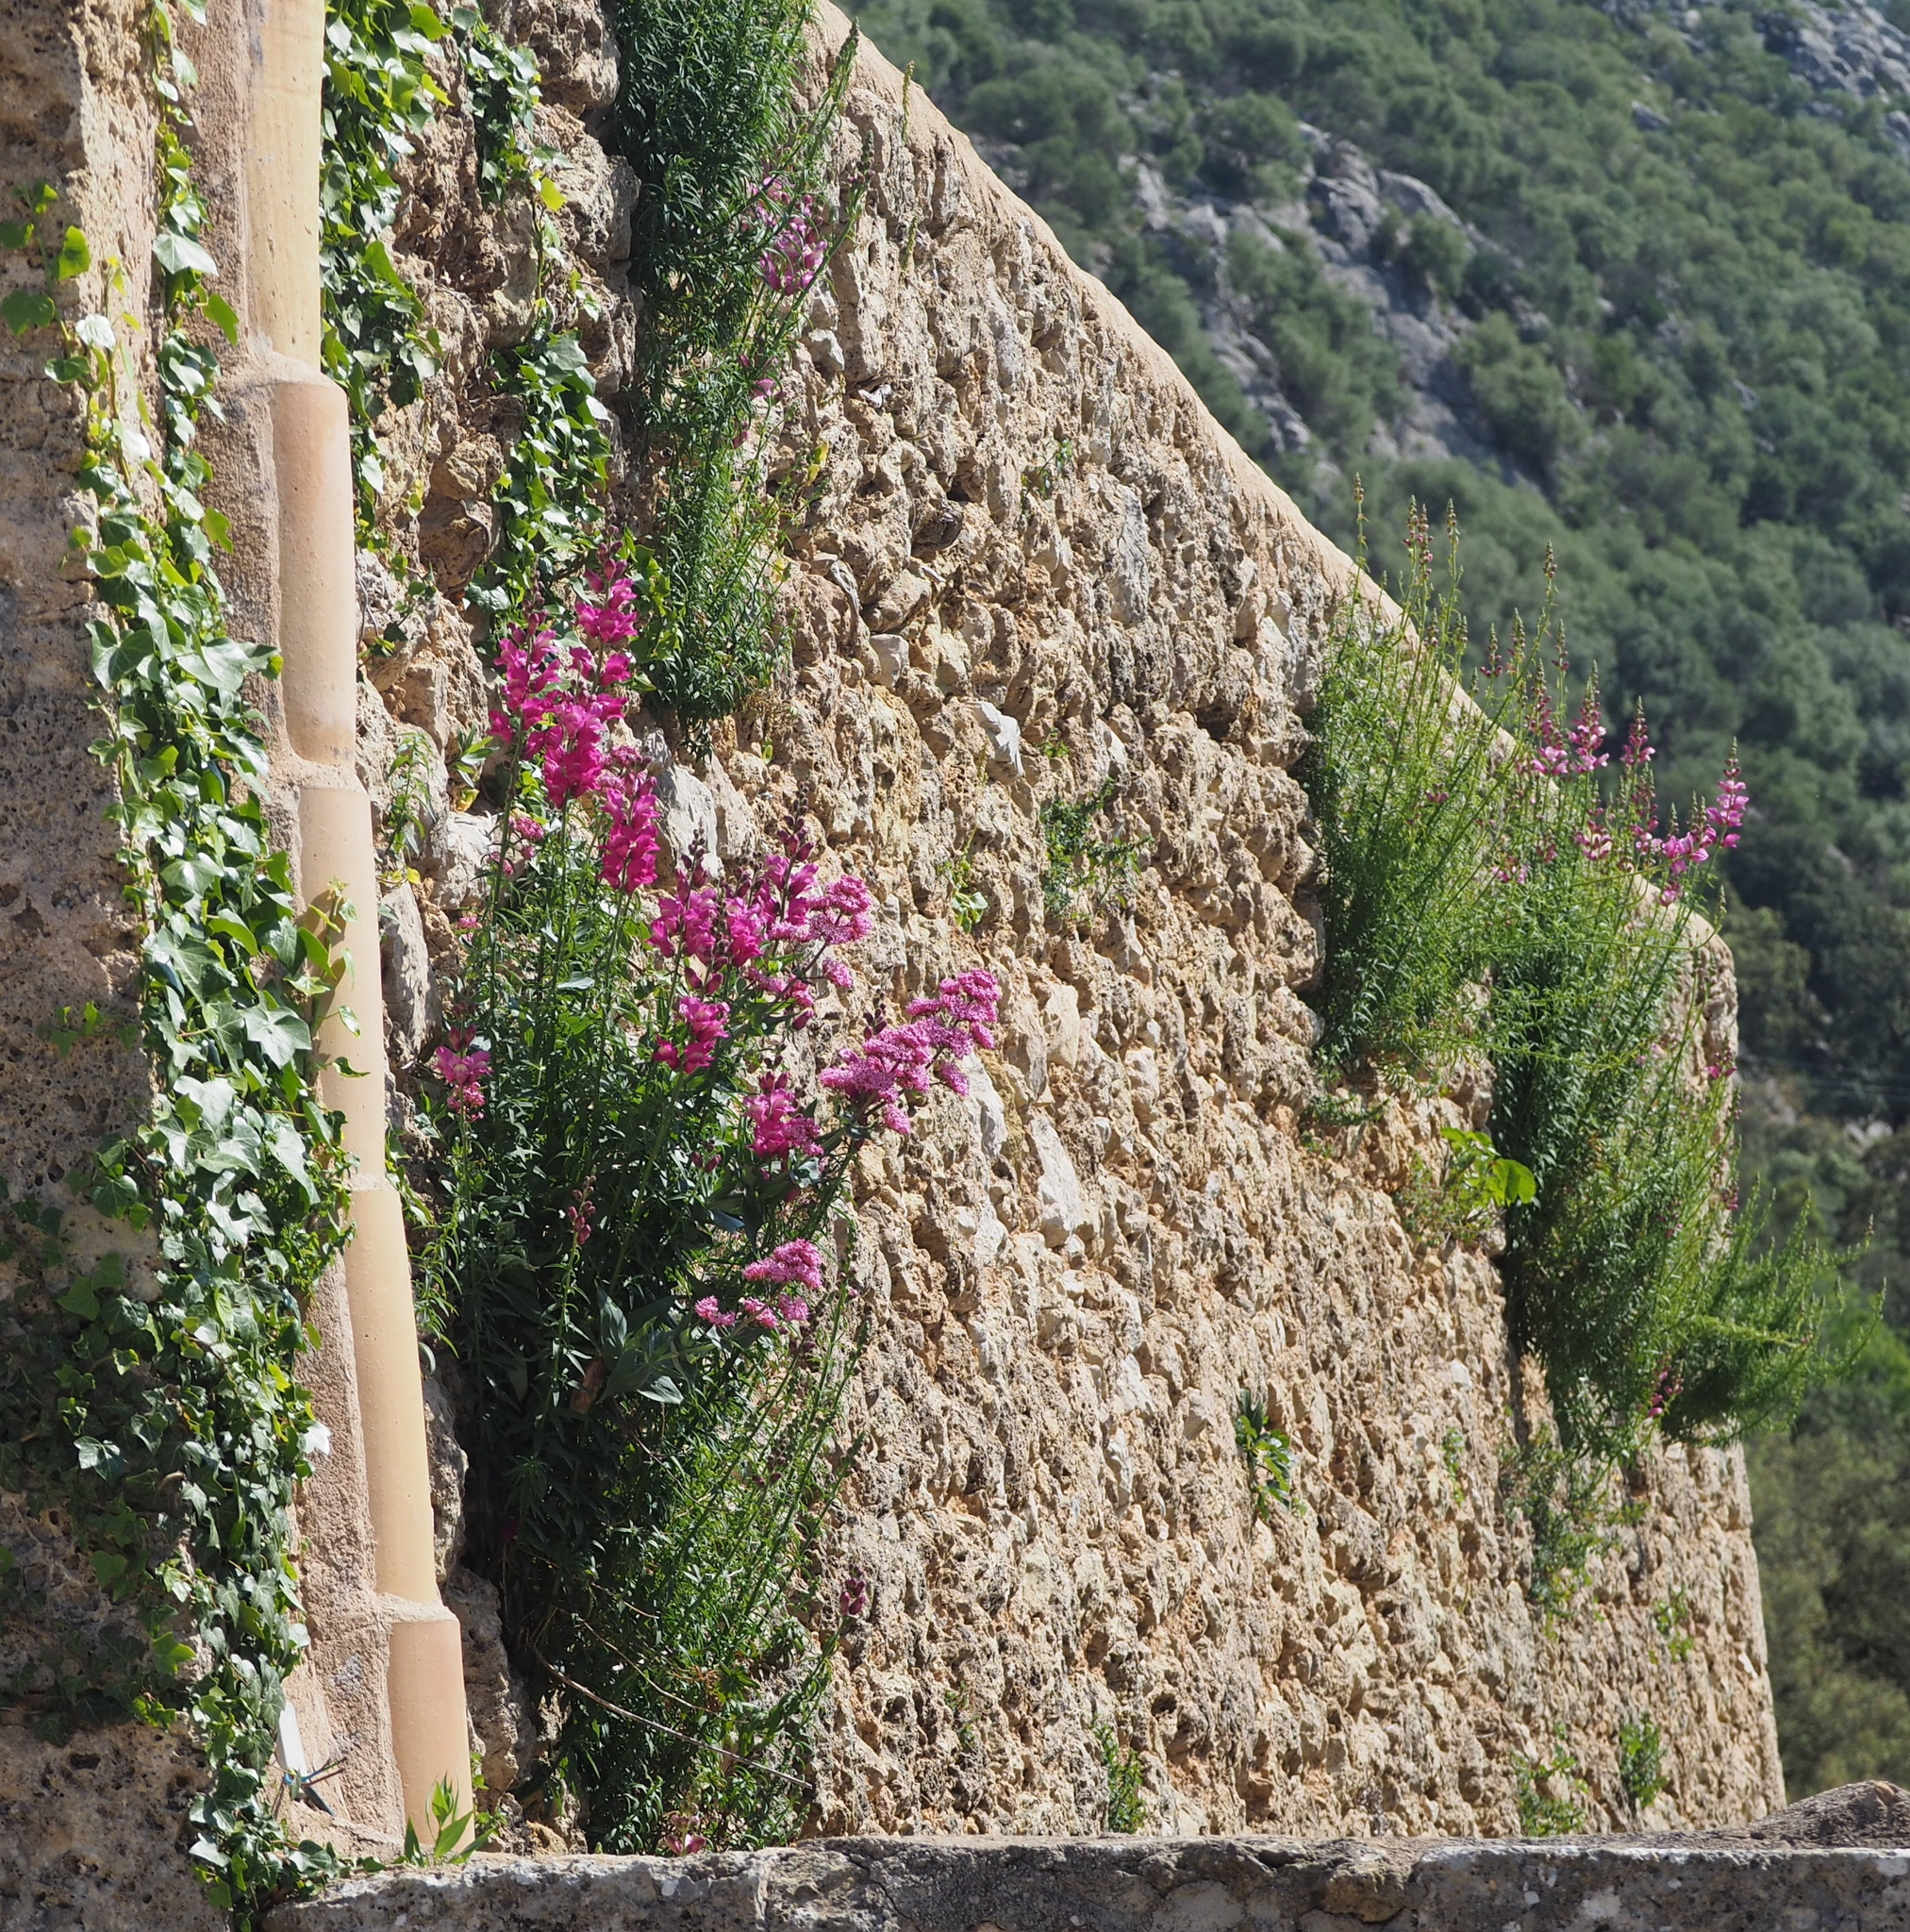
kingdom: Plantae
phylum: Tracheophyta
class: Magnoliopsida
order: Dipsacales
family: Caprifoliaceae
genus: Centranthus
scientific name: Centranthus ruber
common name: Red valerian
